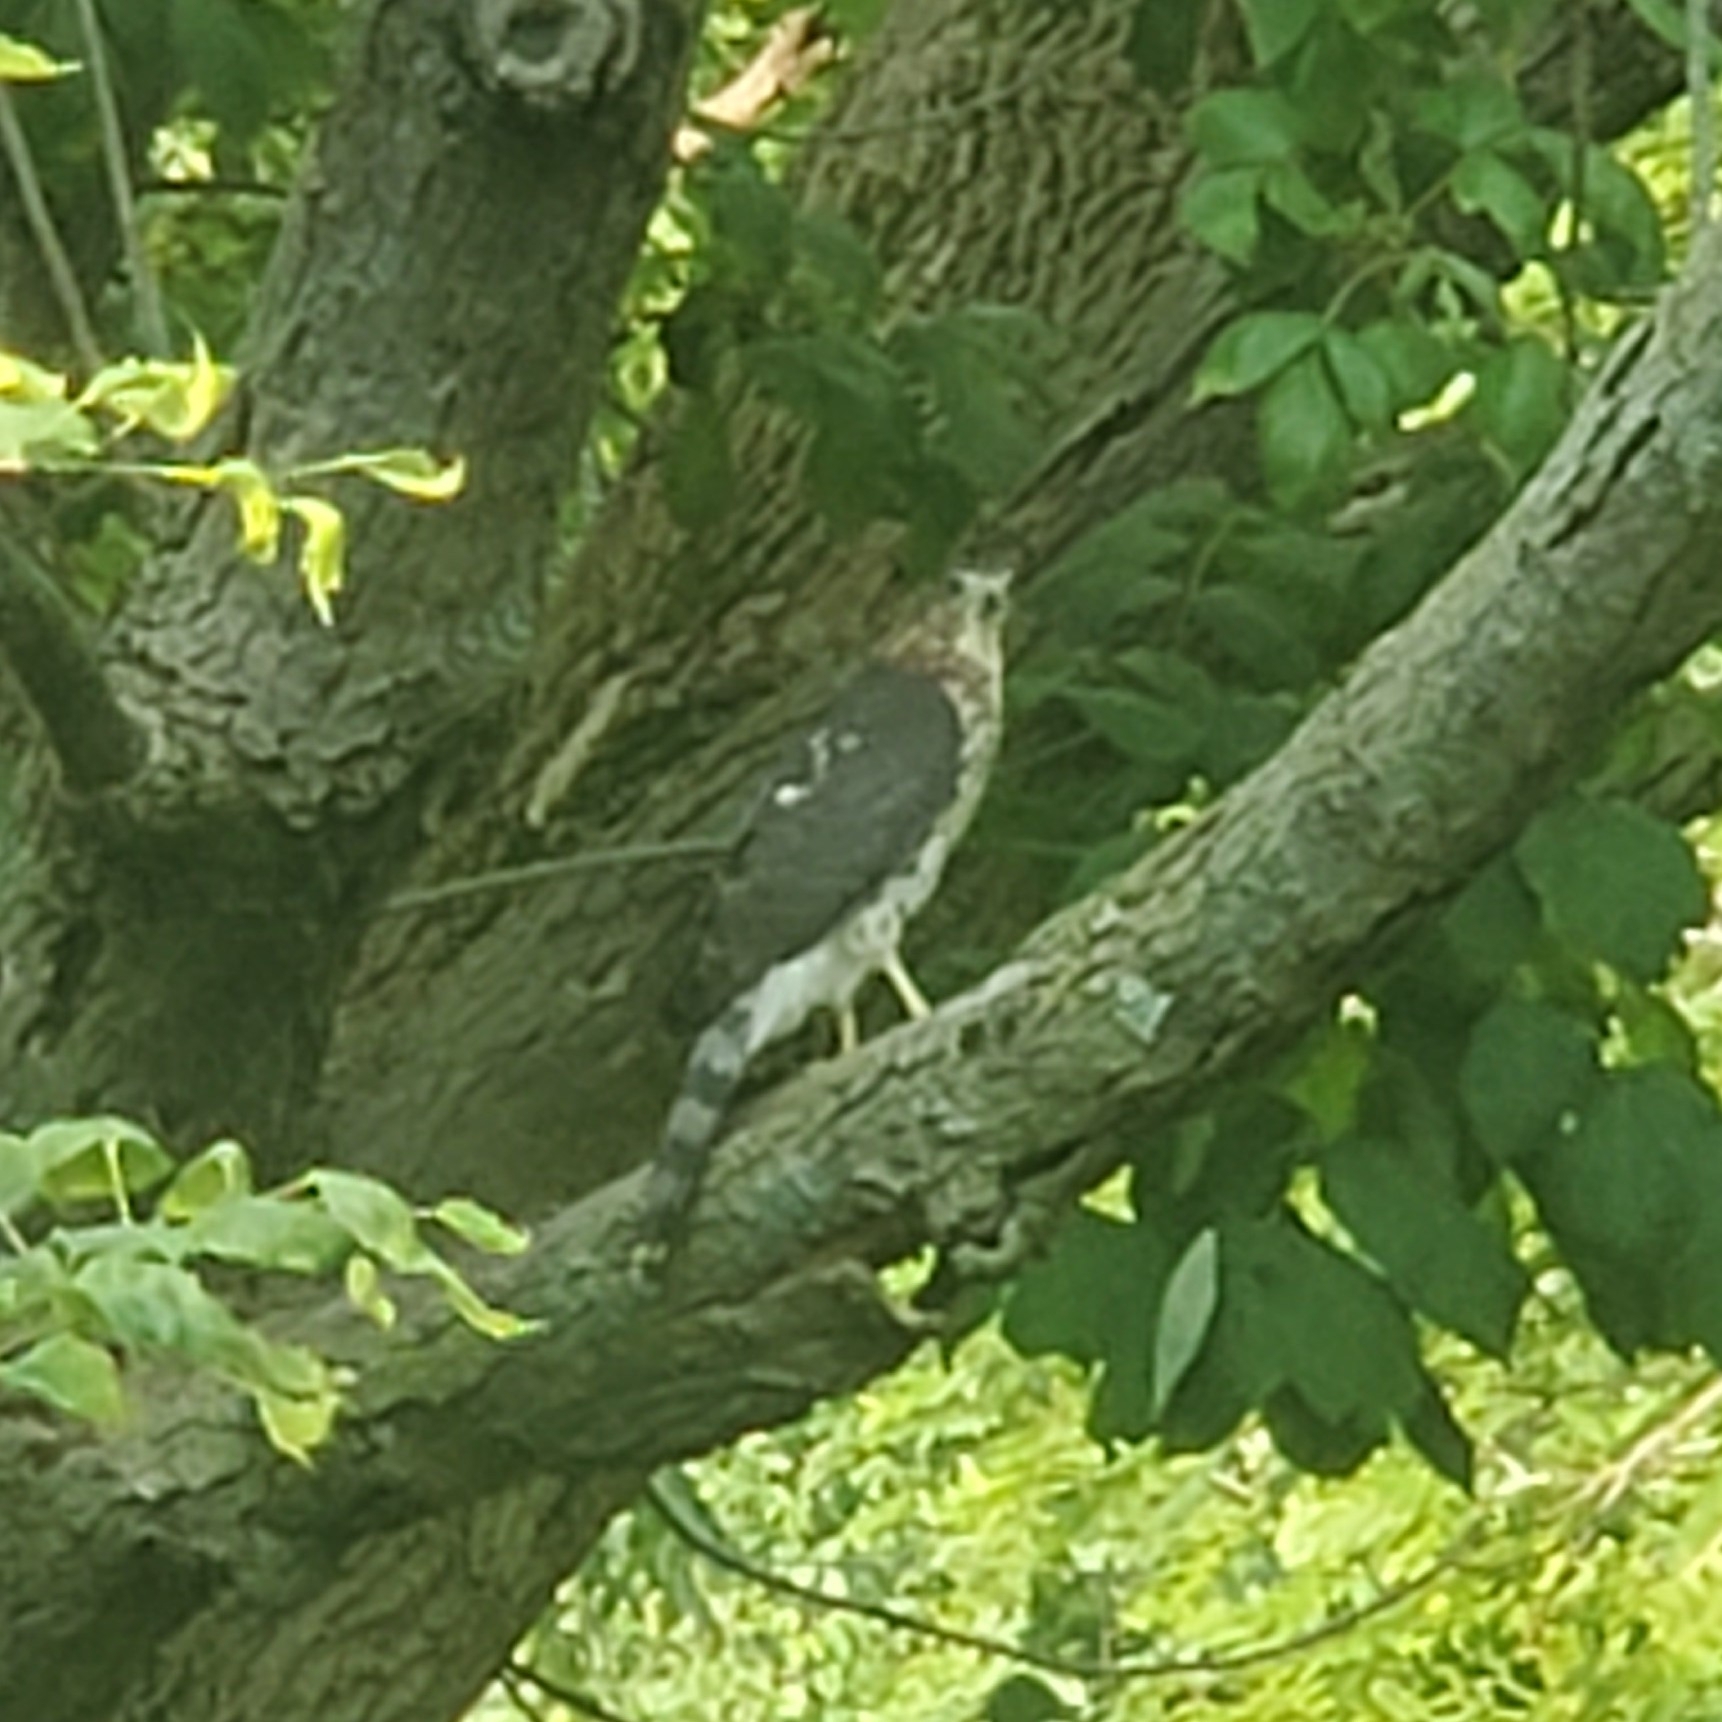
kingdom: Animalia
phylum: Chordata
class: Aves
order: Accipitriformes
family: Accipitridae
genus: Accipiter
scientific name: Accipiter cooperii
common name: Cooper's hawk
